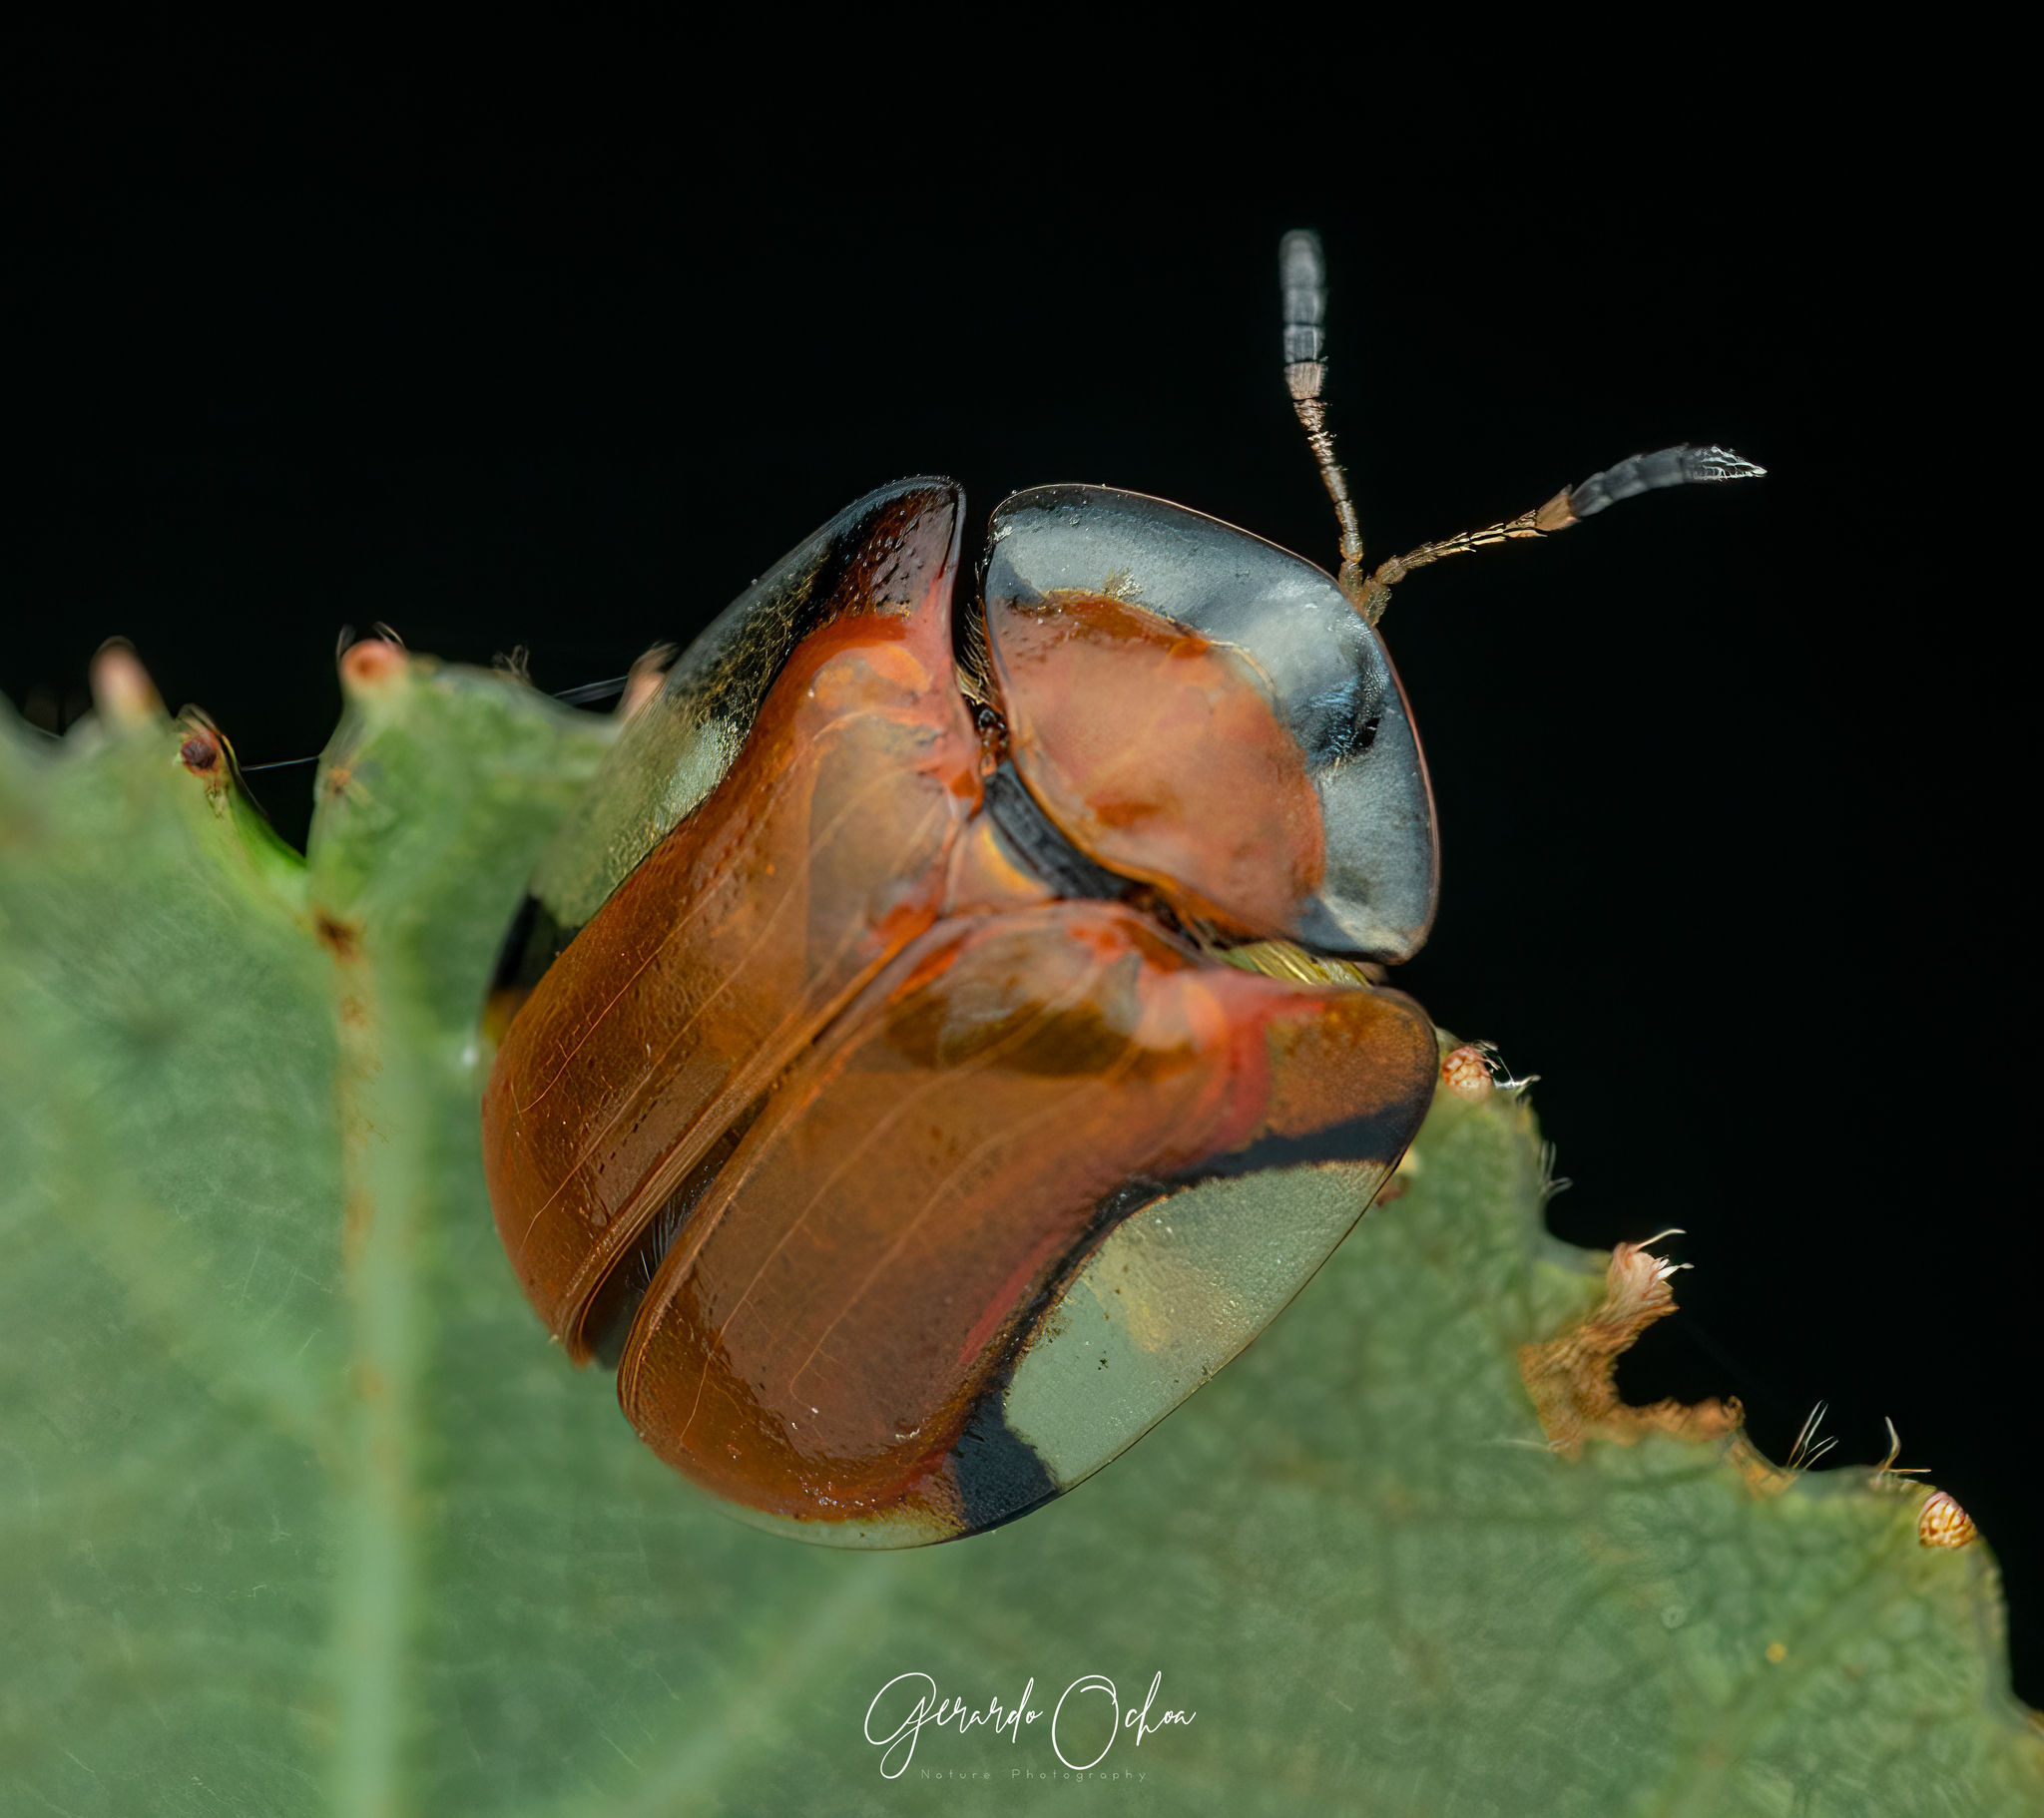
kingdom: Animalia
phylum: Arthropoda
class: Insecta
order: Coleoptera
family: Chrysomelidae
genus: Charidotella
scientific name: Charidotella emarginata
